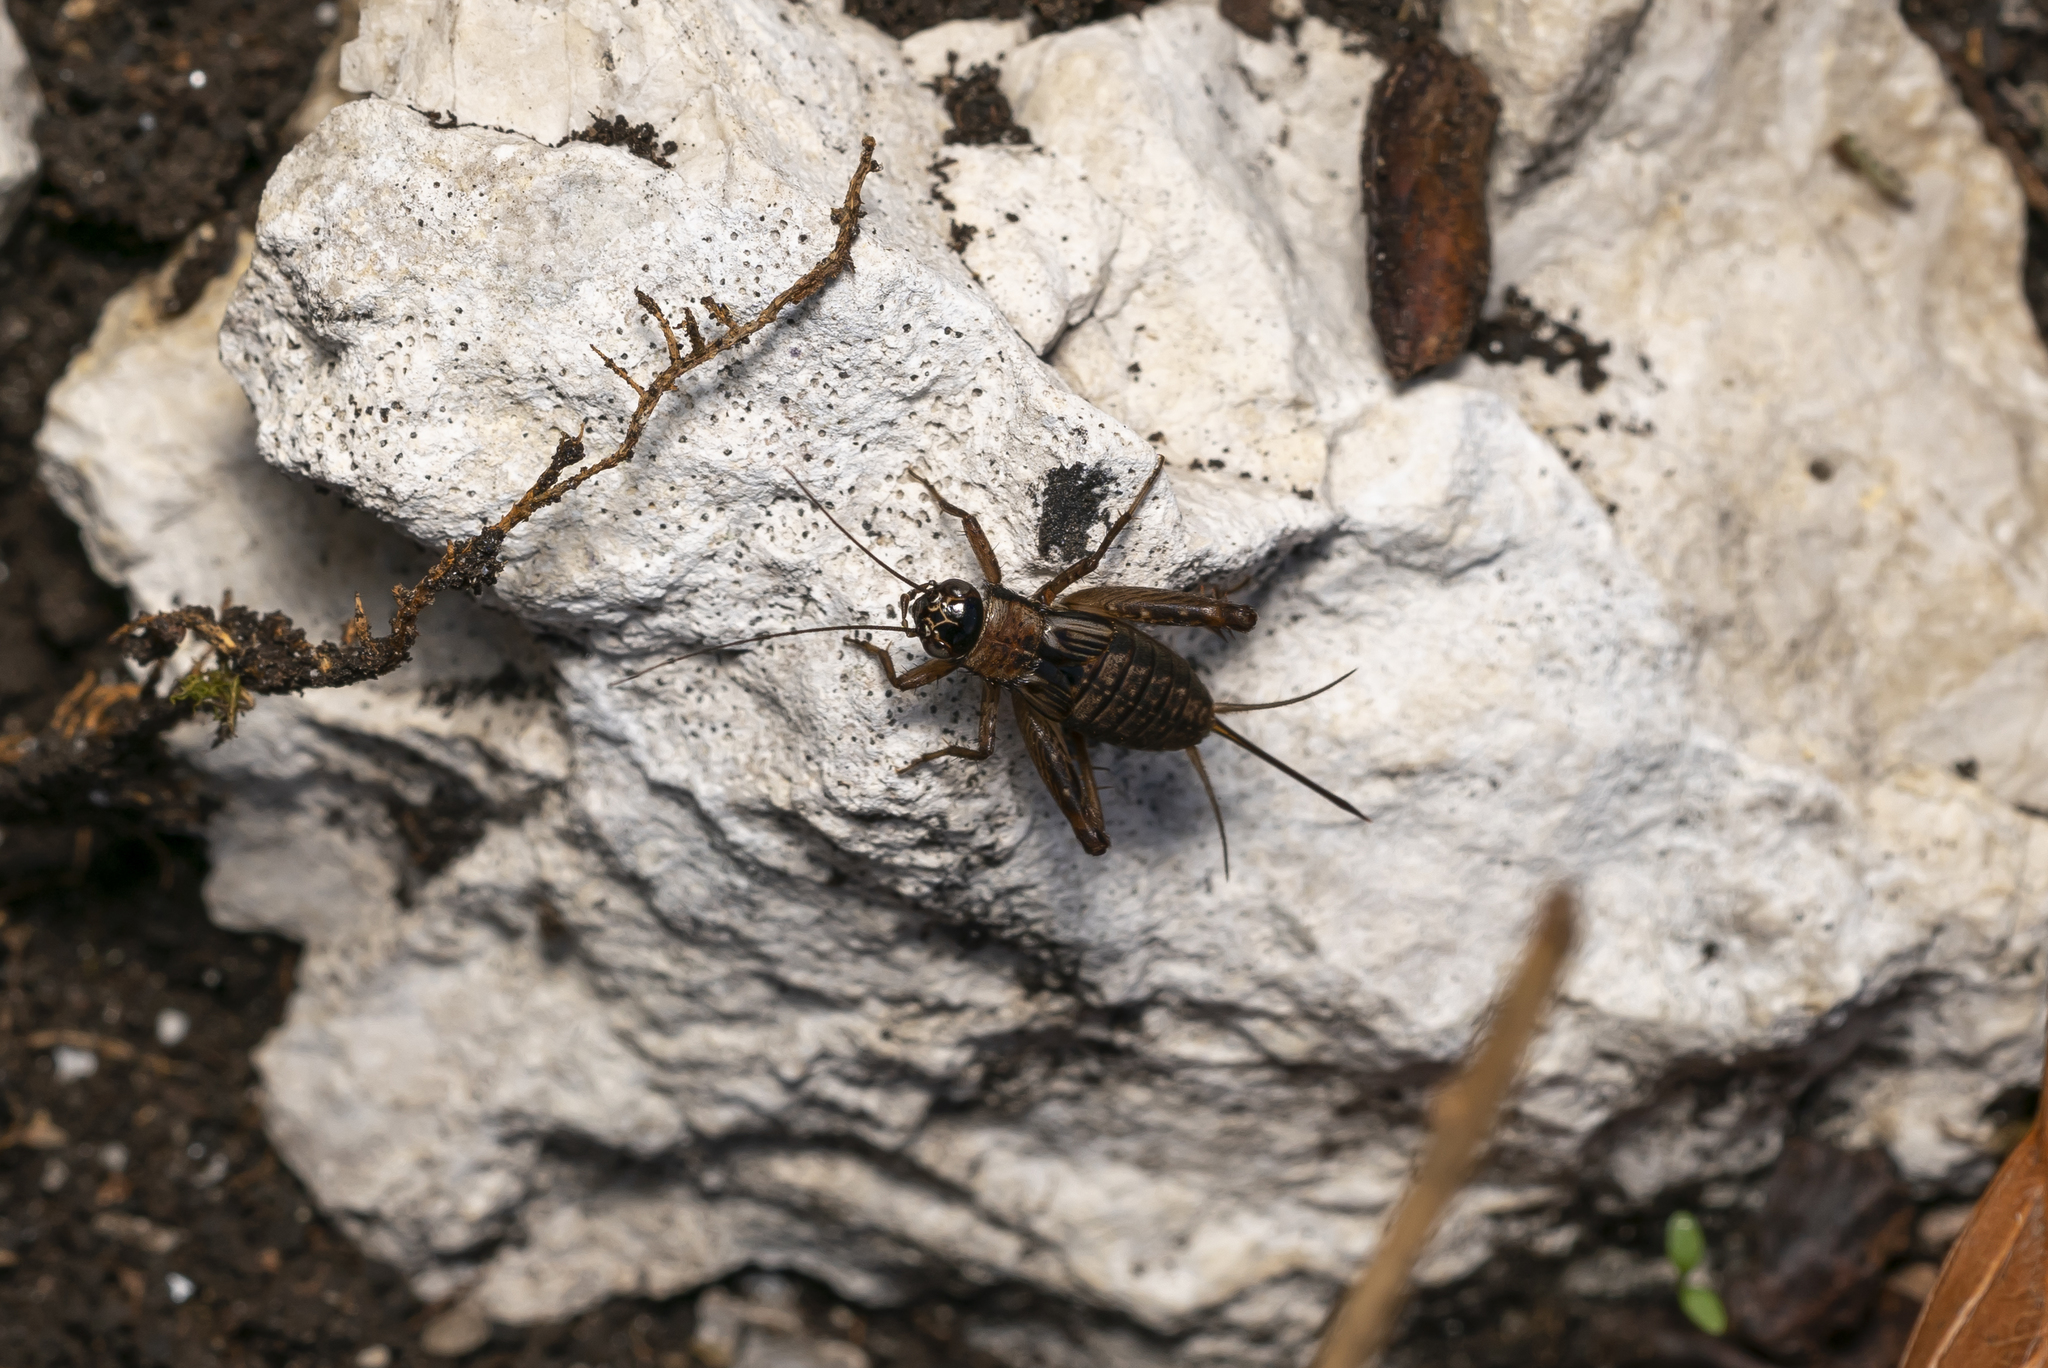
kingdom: Animalia
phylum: Arthropoda
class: Insecta
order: Orthoptera
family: Trigonidiidae
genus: Nemobius
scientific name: Nemobius sylvestris
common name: Wood-cricket
